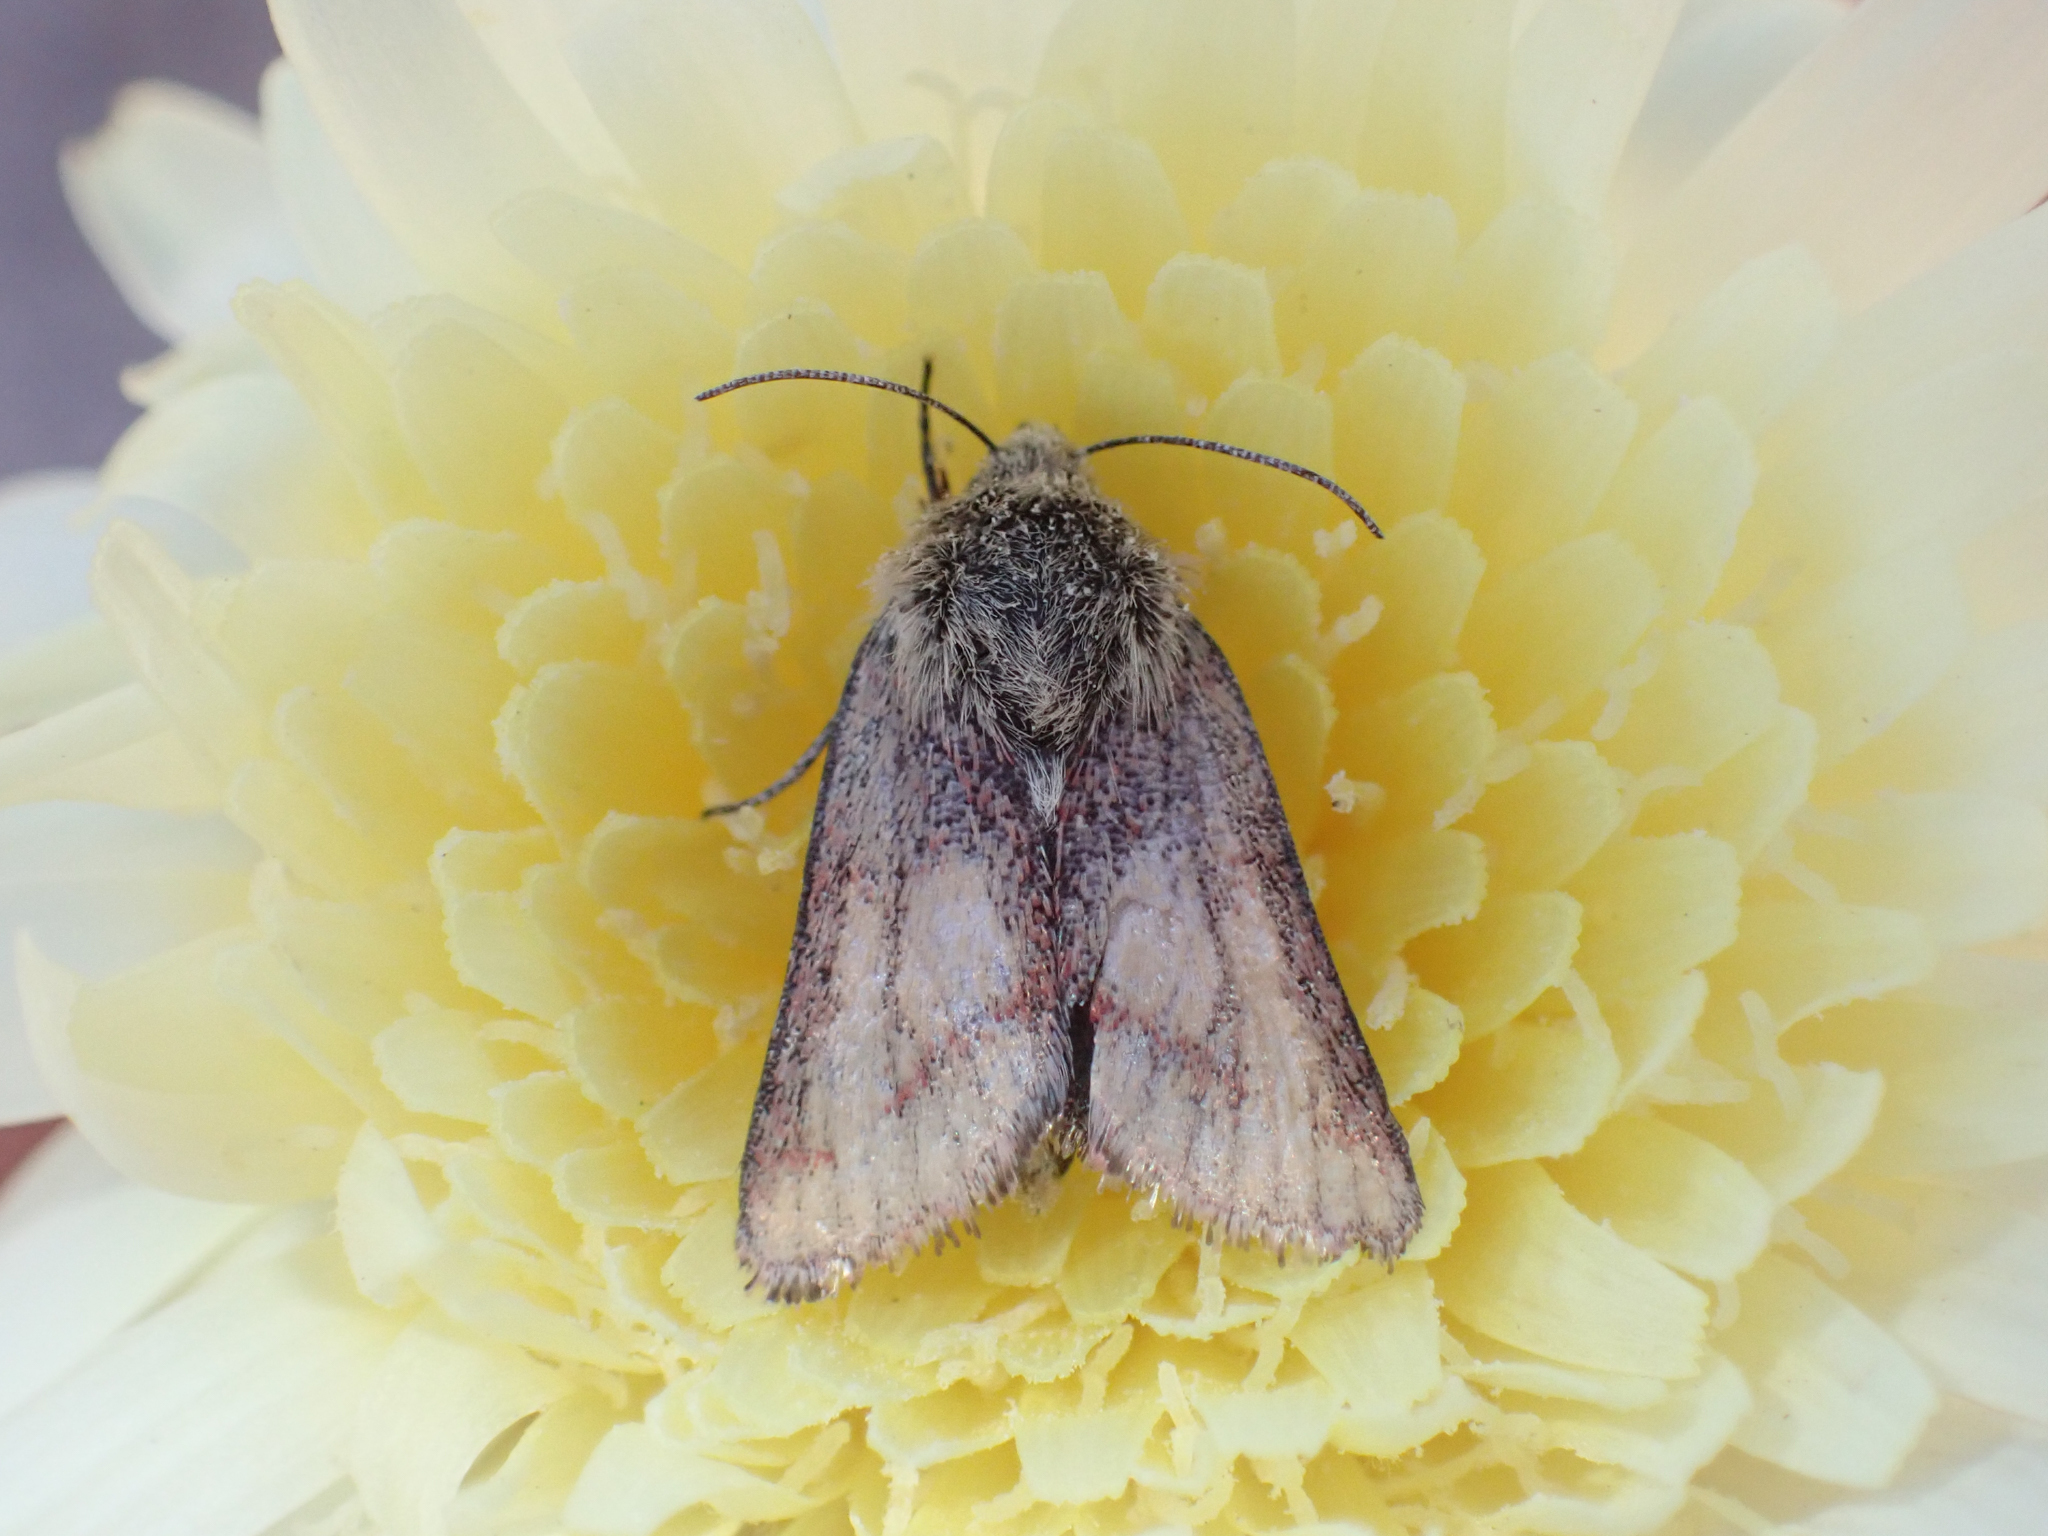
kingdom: Animalia
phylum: Arthropoda
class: Insecta
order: Lepidoptera
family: Noctuidae
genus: Heliolonche
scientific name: Heliolonche pictipennis
